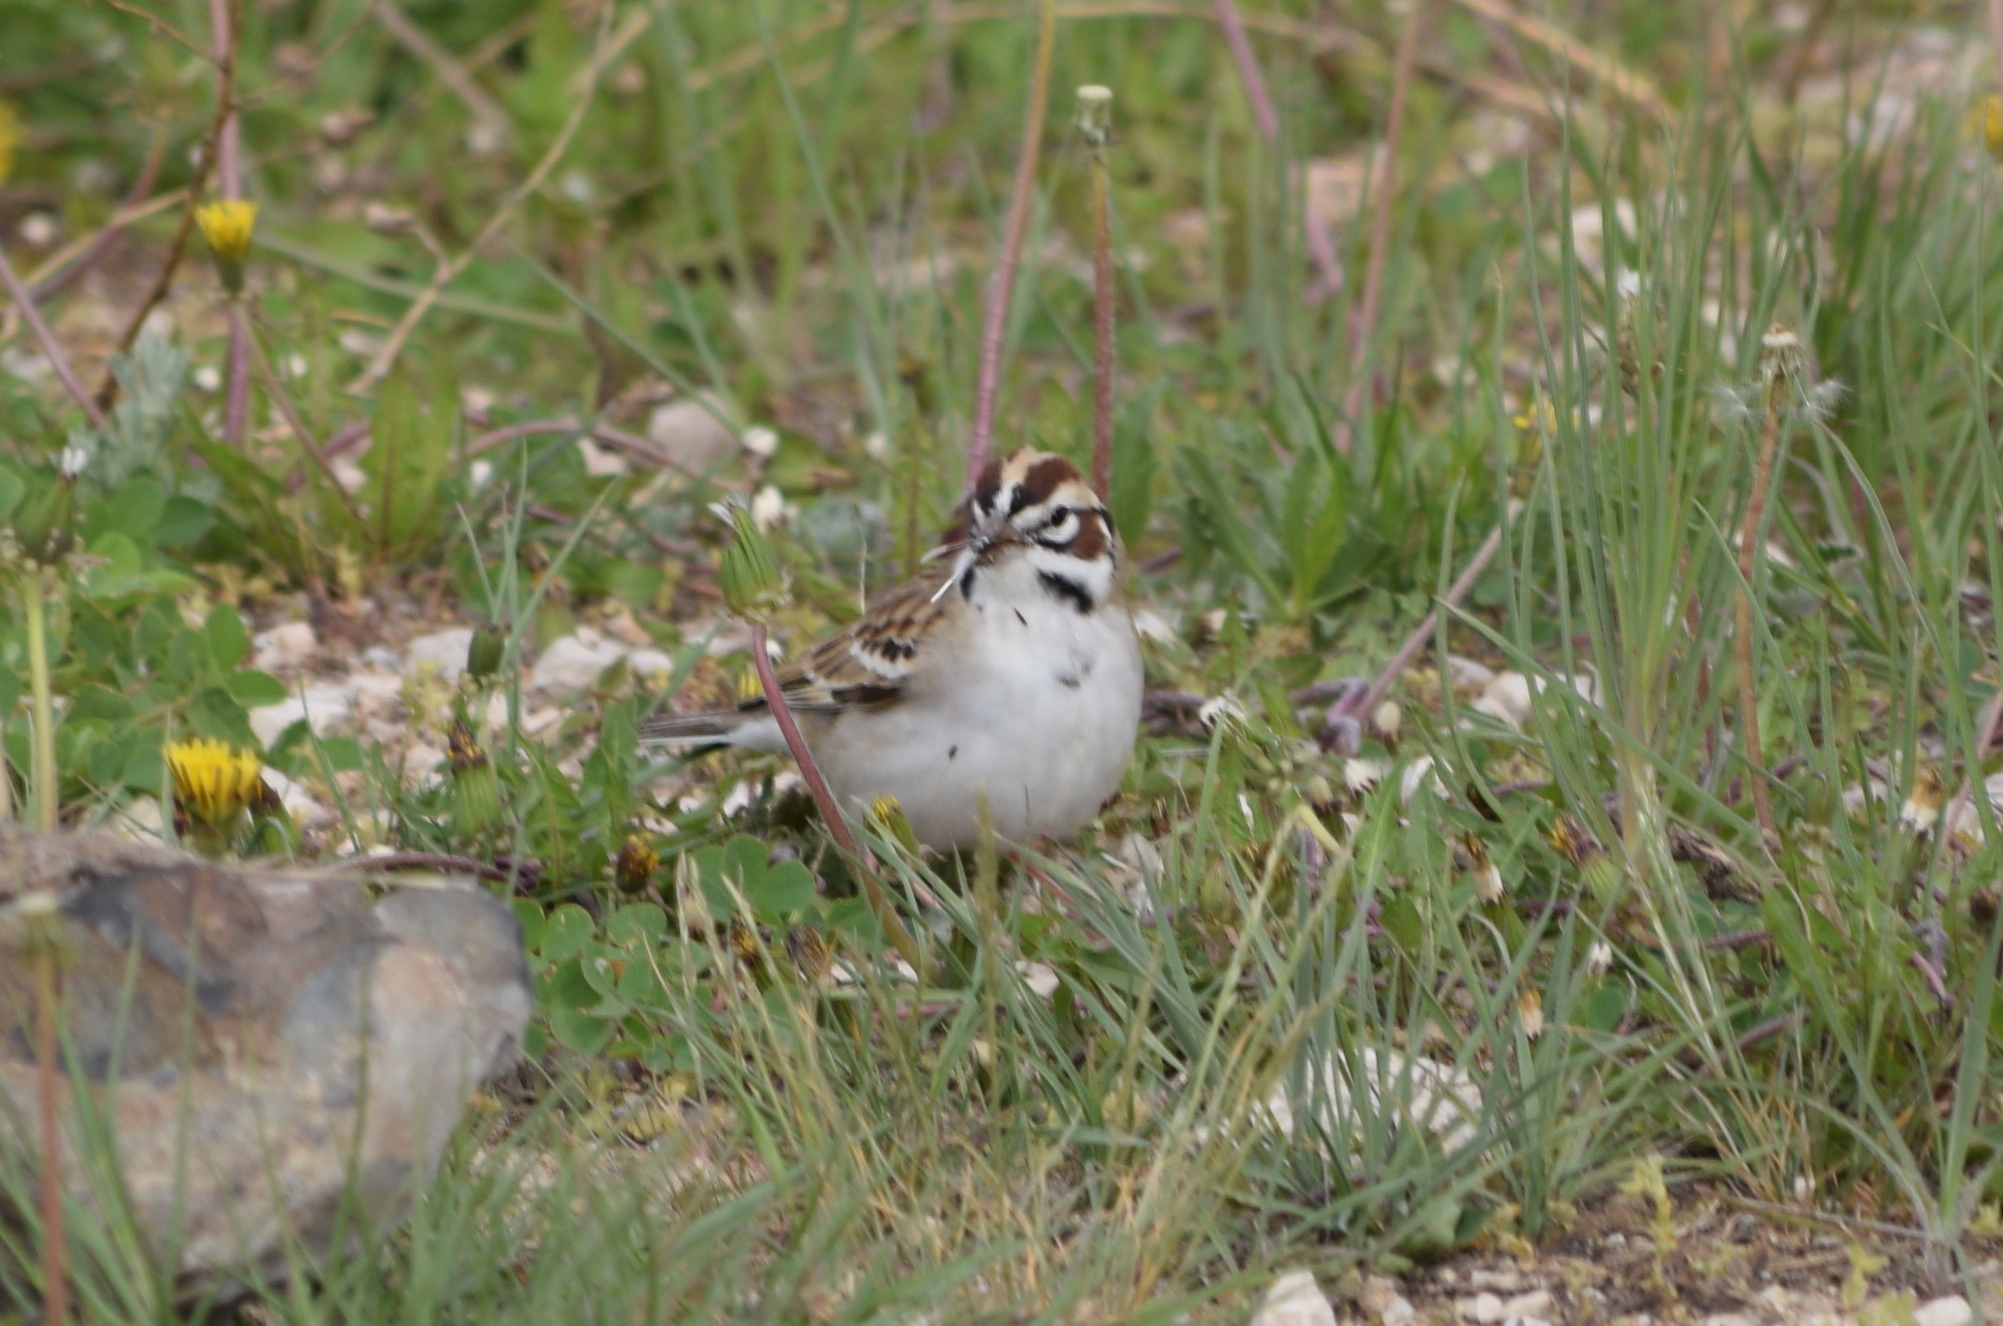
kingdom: Animalia
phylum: Chordata
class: Aves
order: Passeriformes
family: Passerellidae
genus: Chondestes
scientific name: Chondestes grammacus
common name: Lark sparrow
